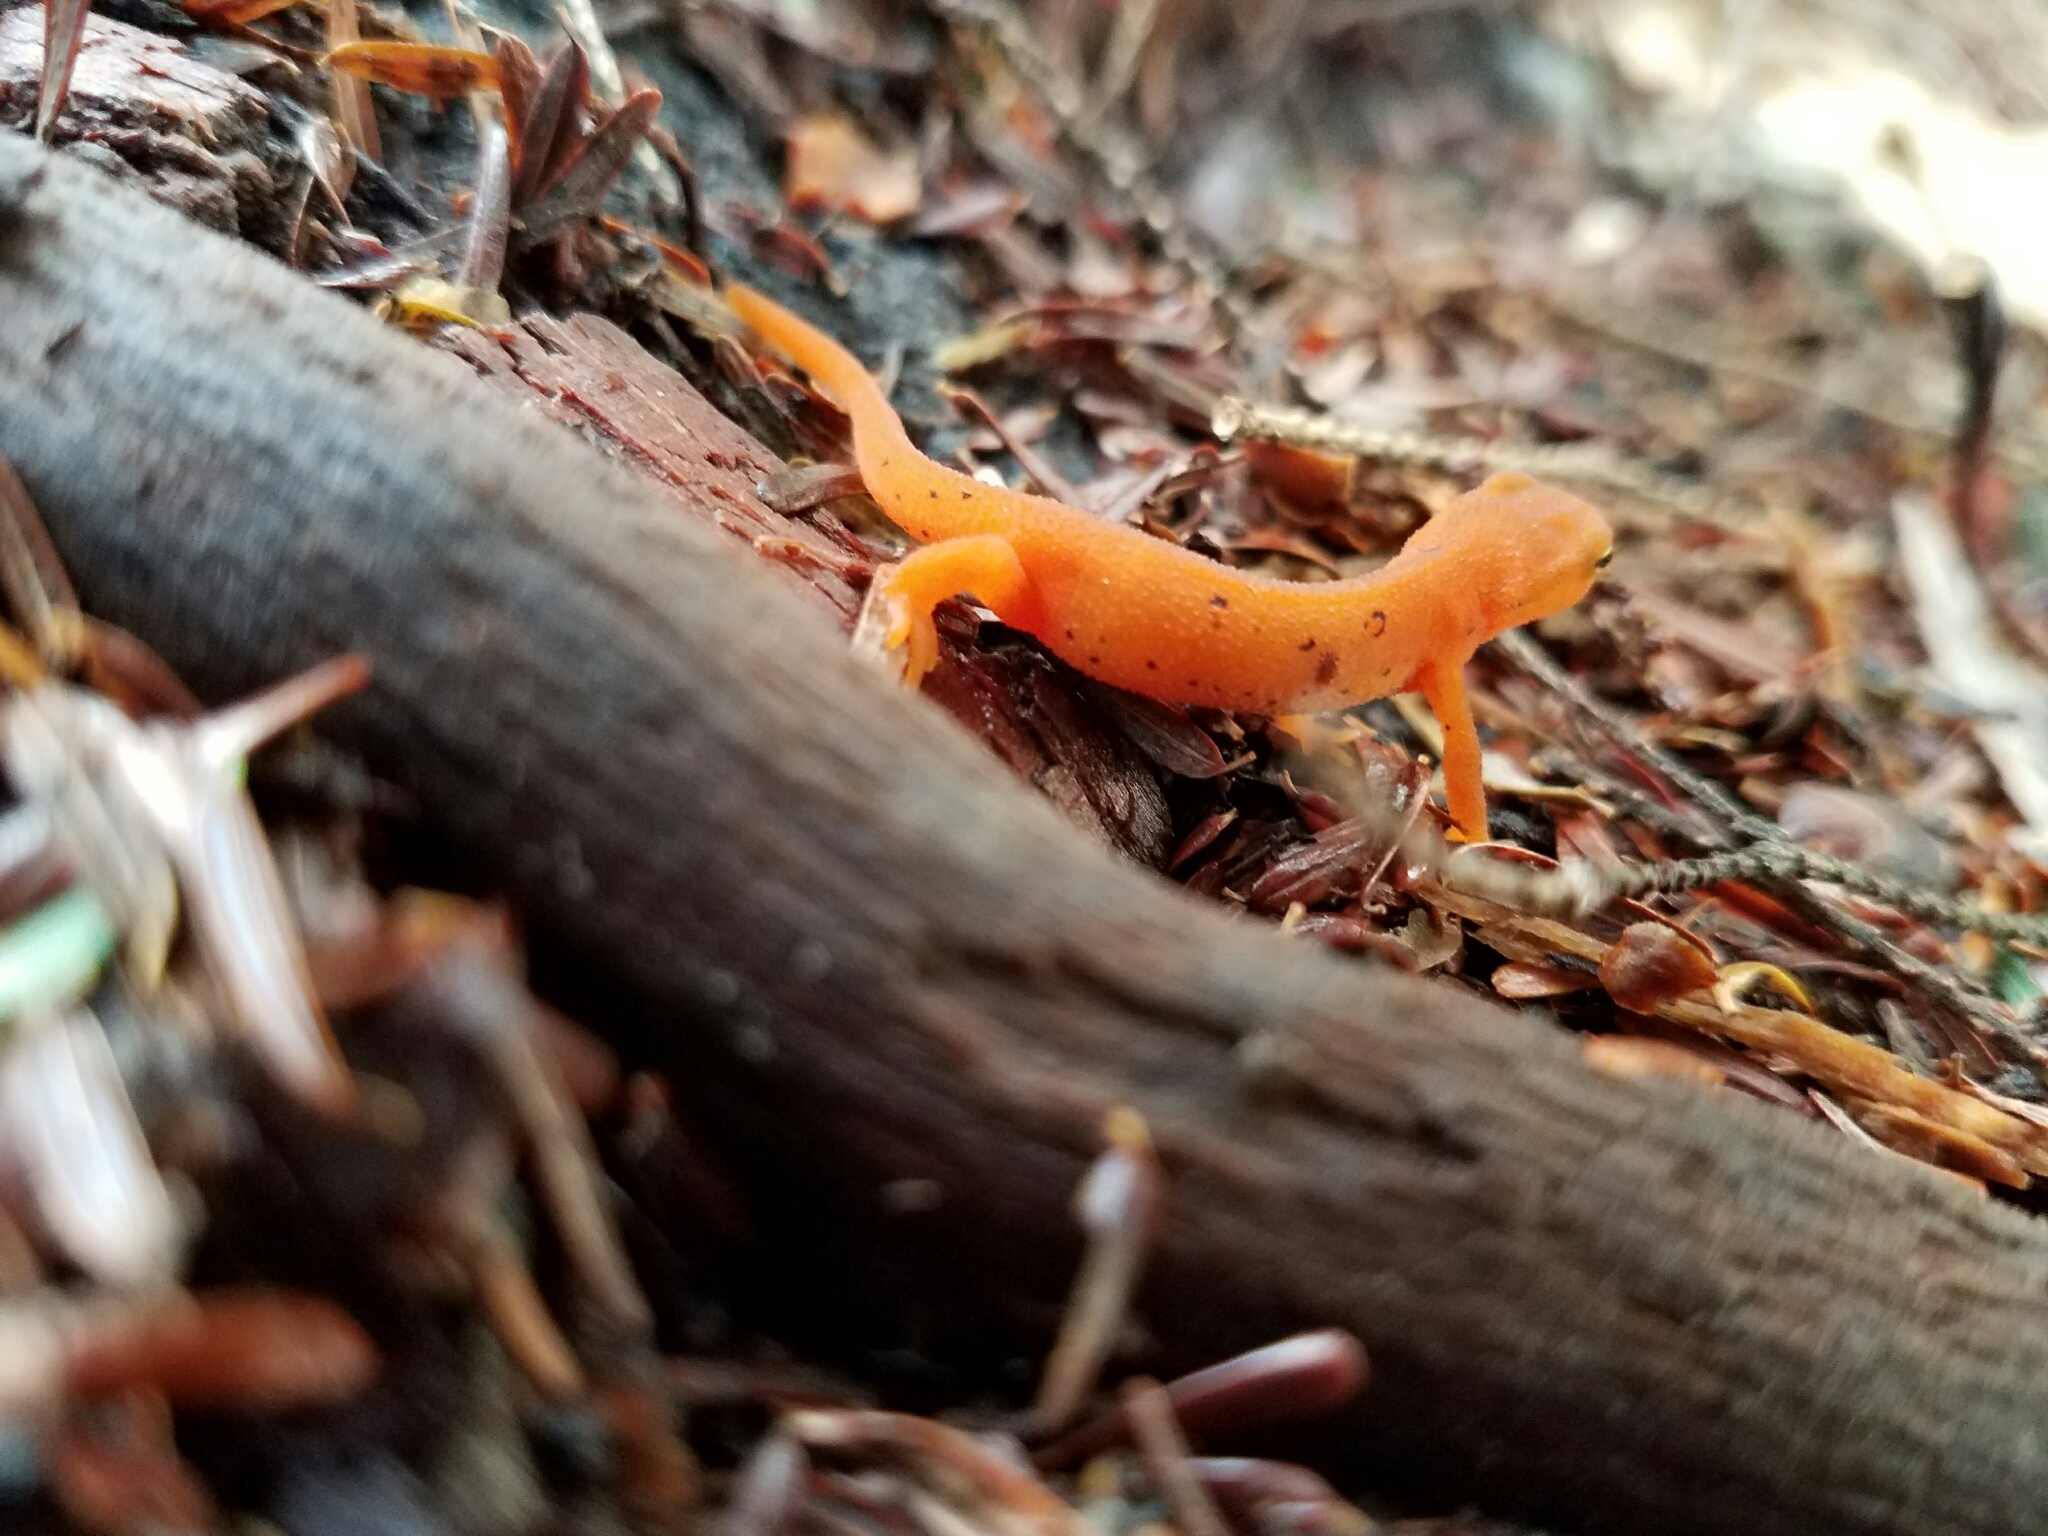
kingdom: Animalia
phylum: Chordata
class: Amphibia
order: Caudata
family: Salamandridae
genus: Notophthalmus
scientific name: Notophthalmus viridescens
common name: Eastern newt
